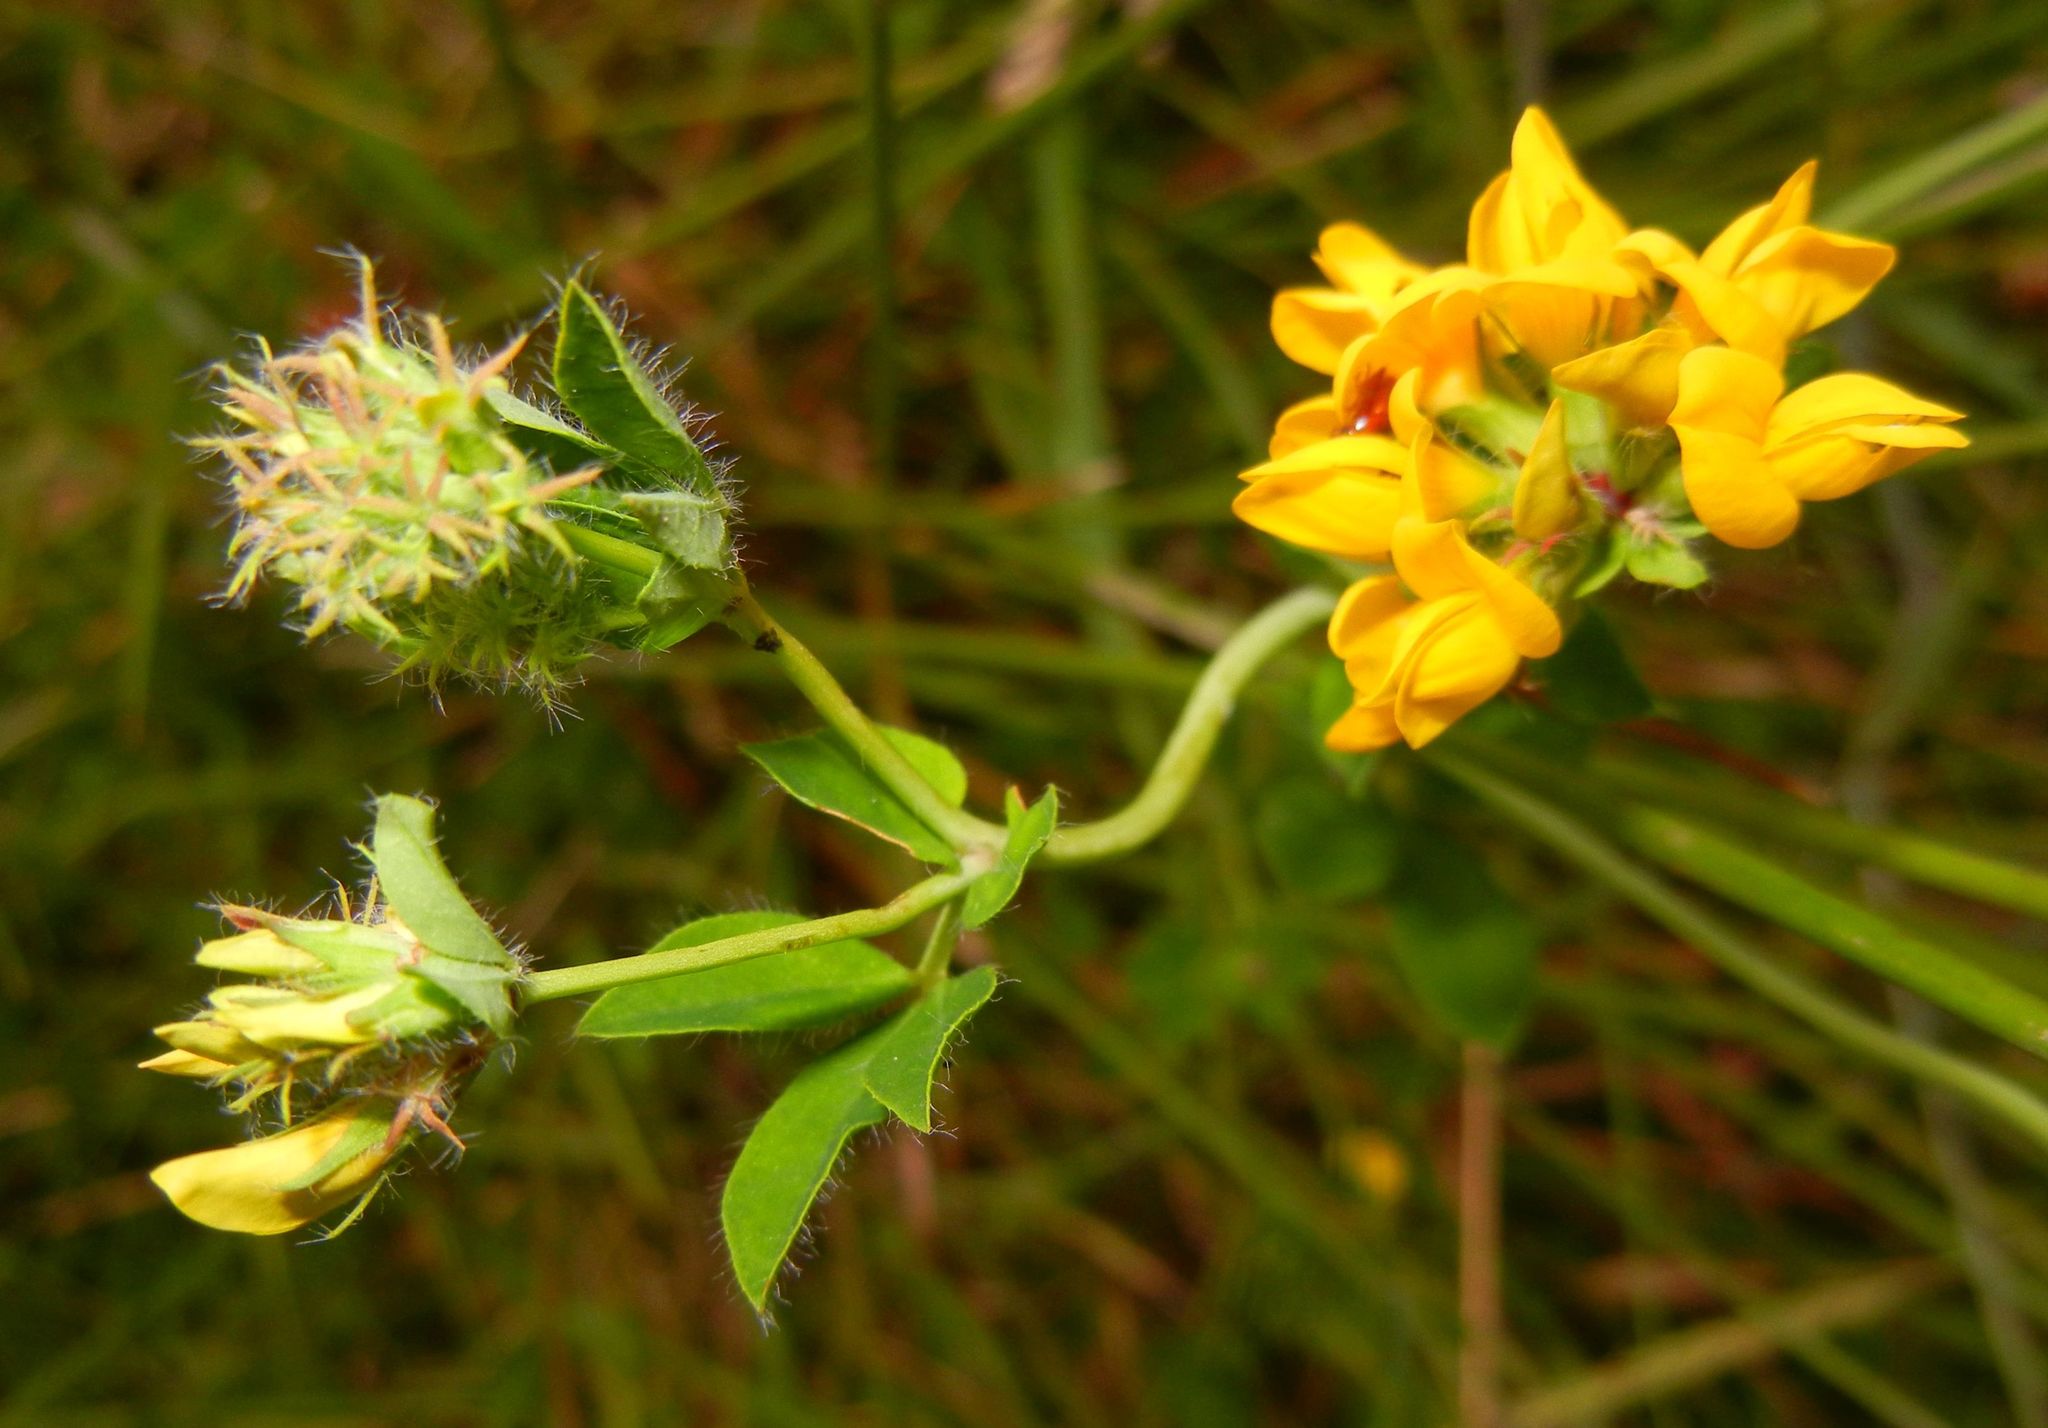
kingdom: Plantae
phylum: Tracheophyta
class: Magnoliopsida
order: Fabales
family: Fabaceae
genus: Lotus
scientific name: Lotus pedunculatus
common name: Greater birdsfoot-trefoil
